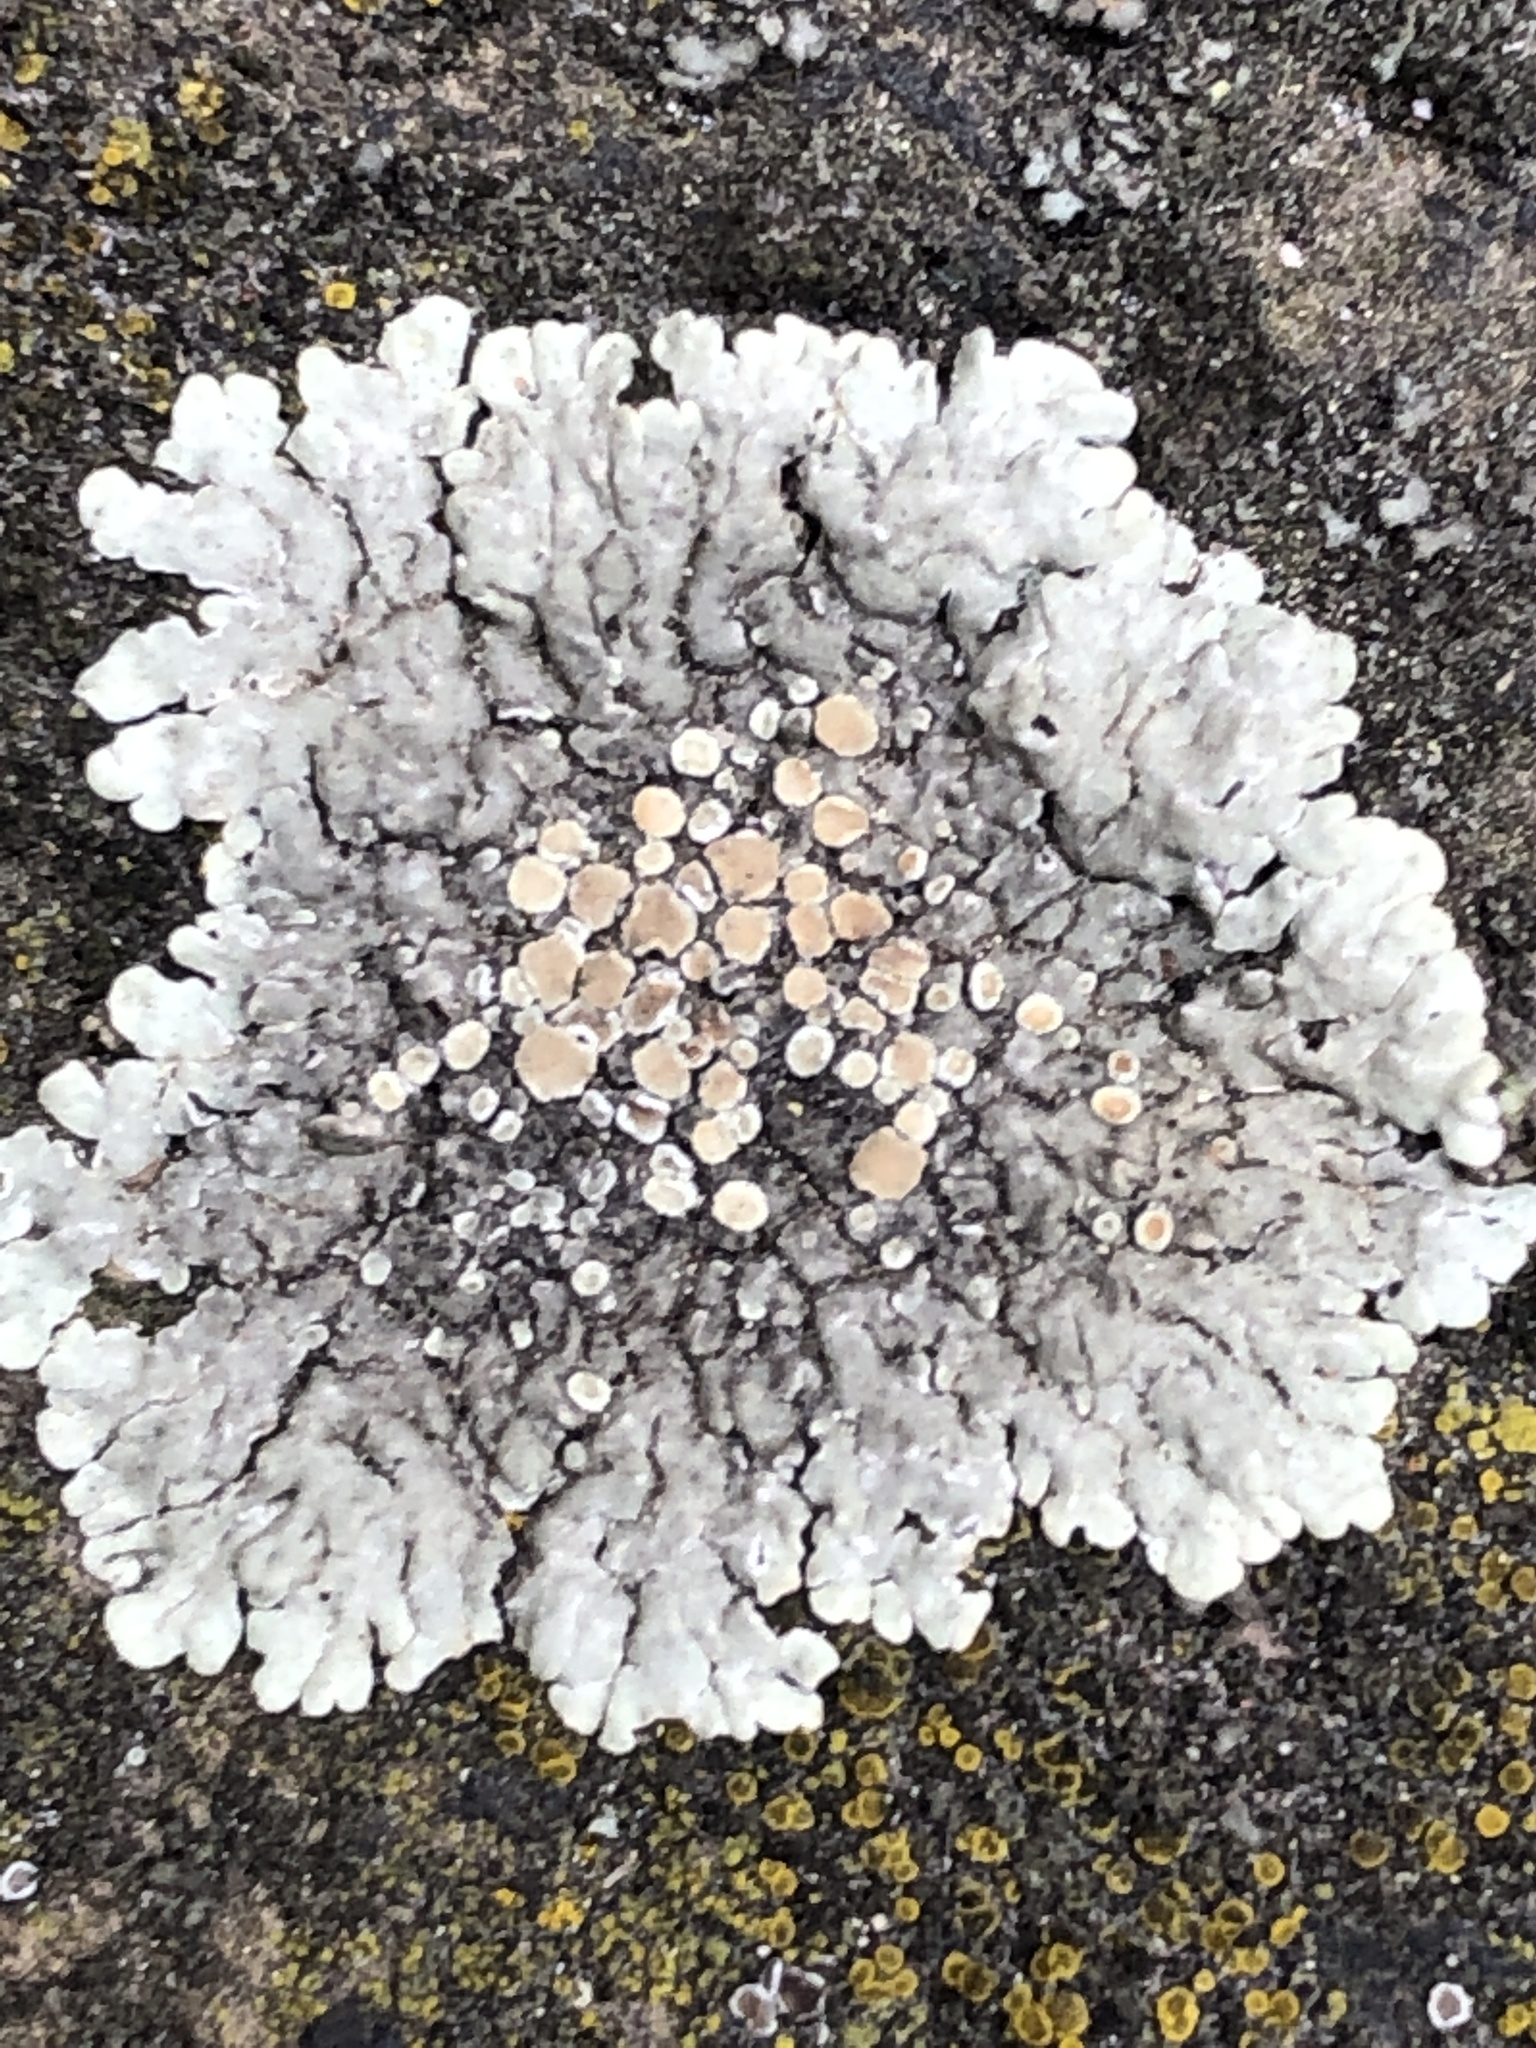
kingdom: Fungi
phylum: Ascomycota
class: Lecanoromycetes
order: Lecanorales
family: Lecanoraceae
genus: Protoparmeliopsis
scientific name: Protoparmeliopsis muralis
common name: Stonewall rim lichen
